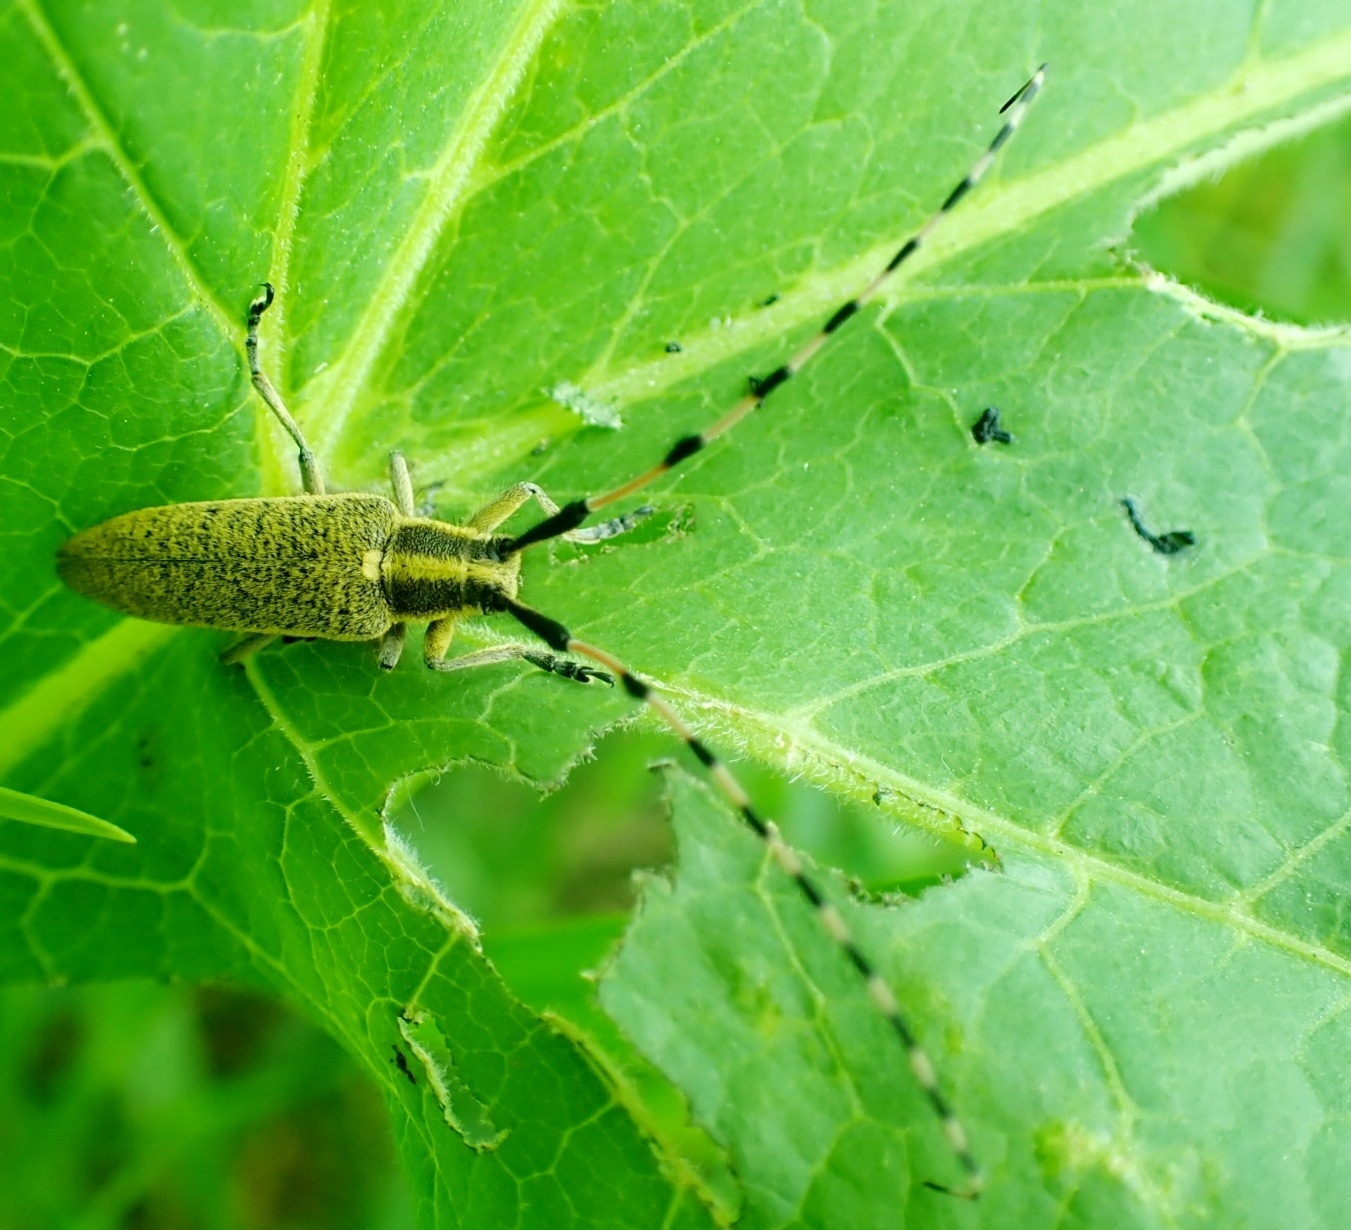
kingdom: Animalia
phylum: Arthropoda
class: Insecta
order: Coleoptera
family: Cerambycidae
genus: Agapanthia
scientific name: Agapanthia dahlii
